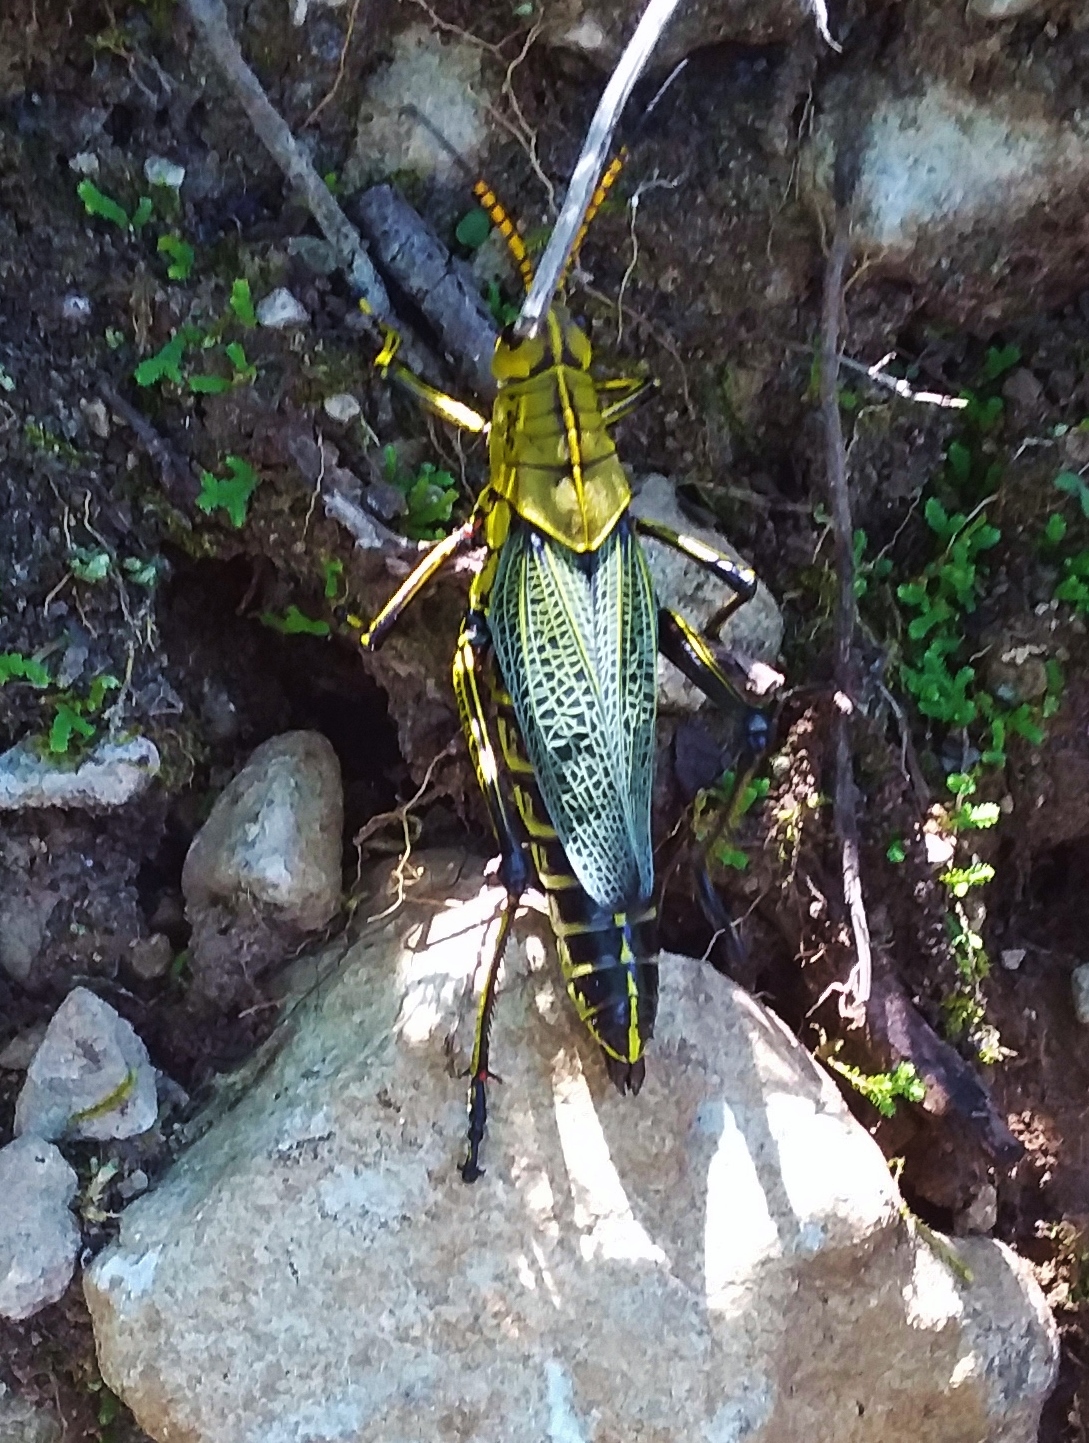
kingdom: Animalia
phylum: Arthropoda
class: Insecta
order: Orthoptera
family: Romaleidae
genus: Romalea
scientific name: Romalea
